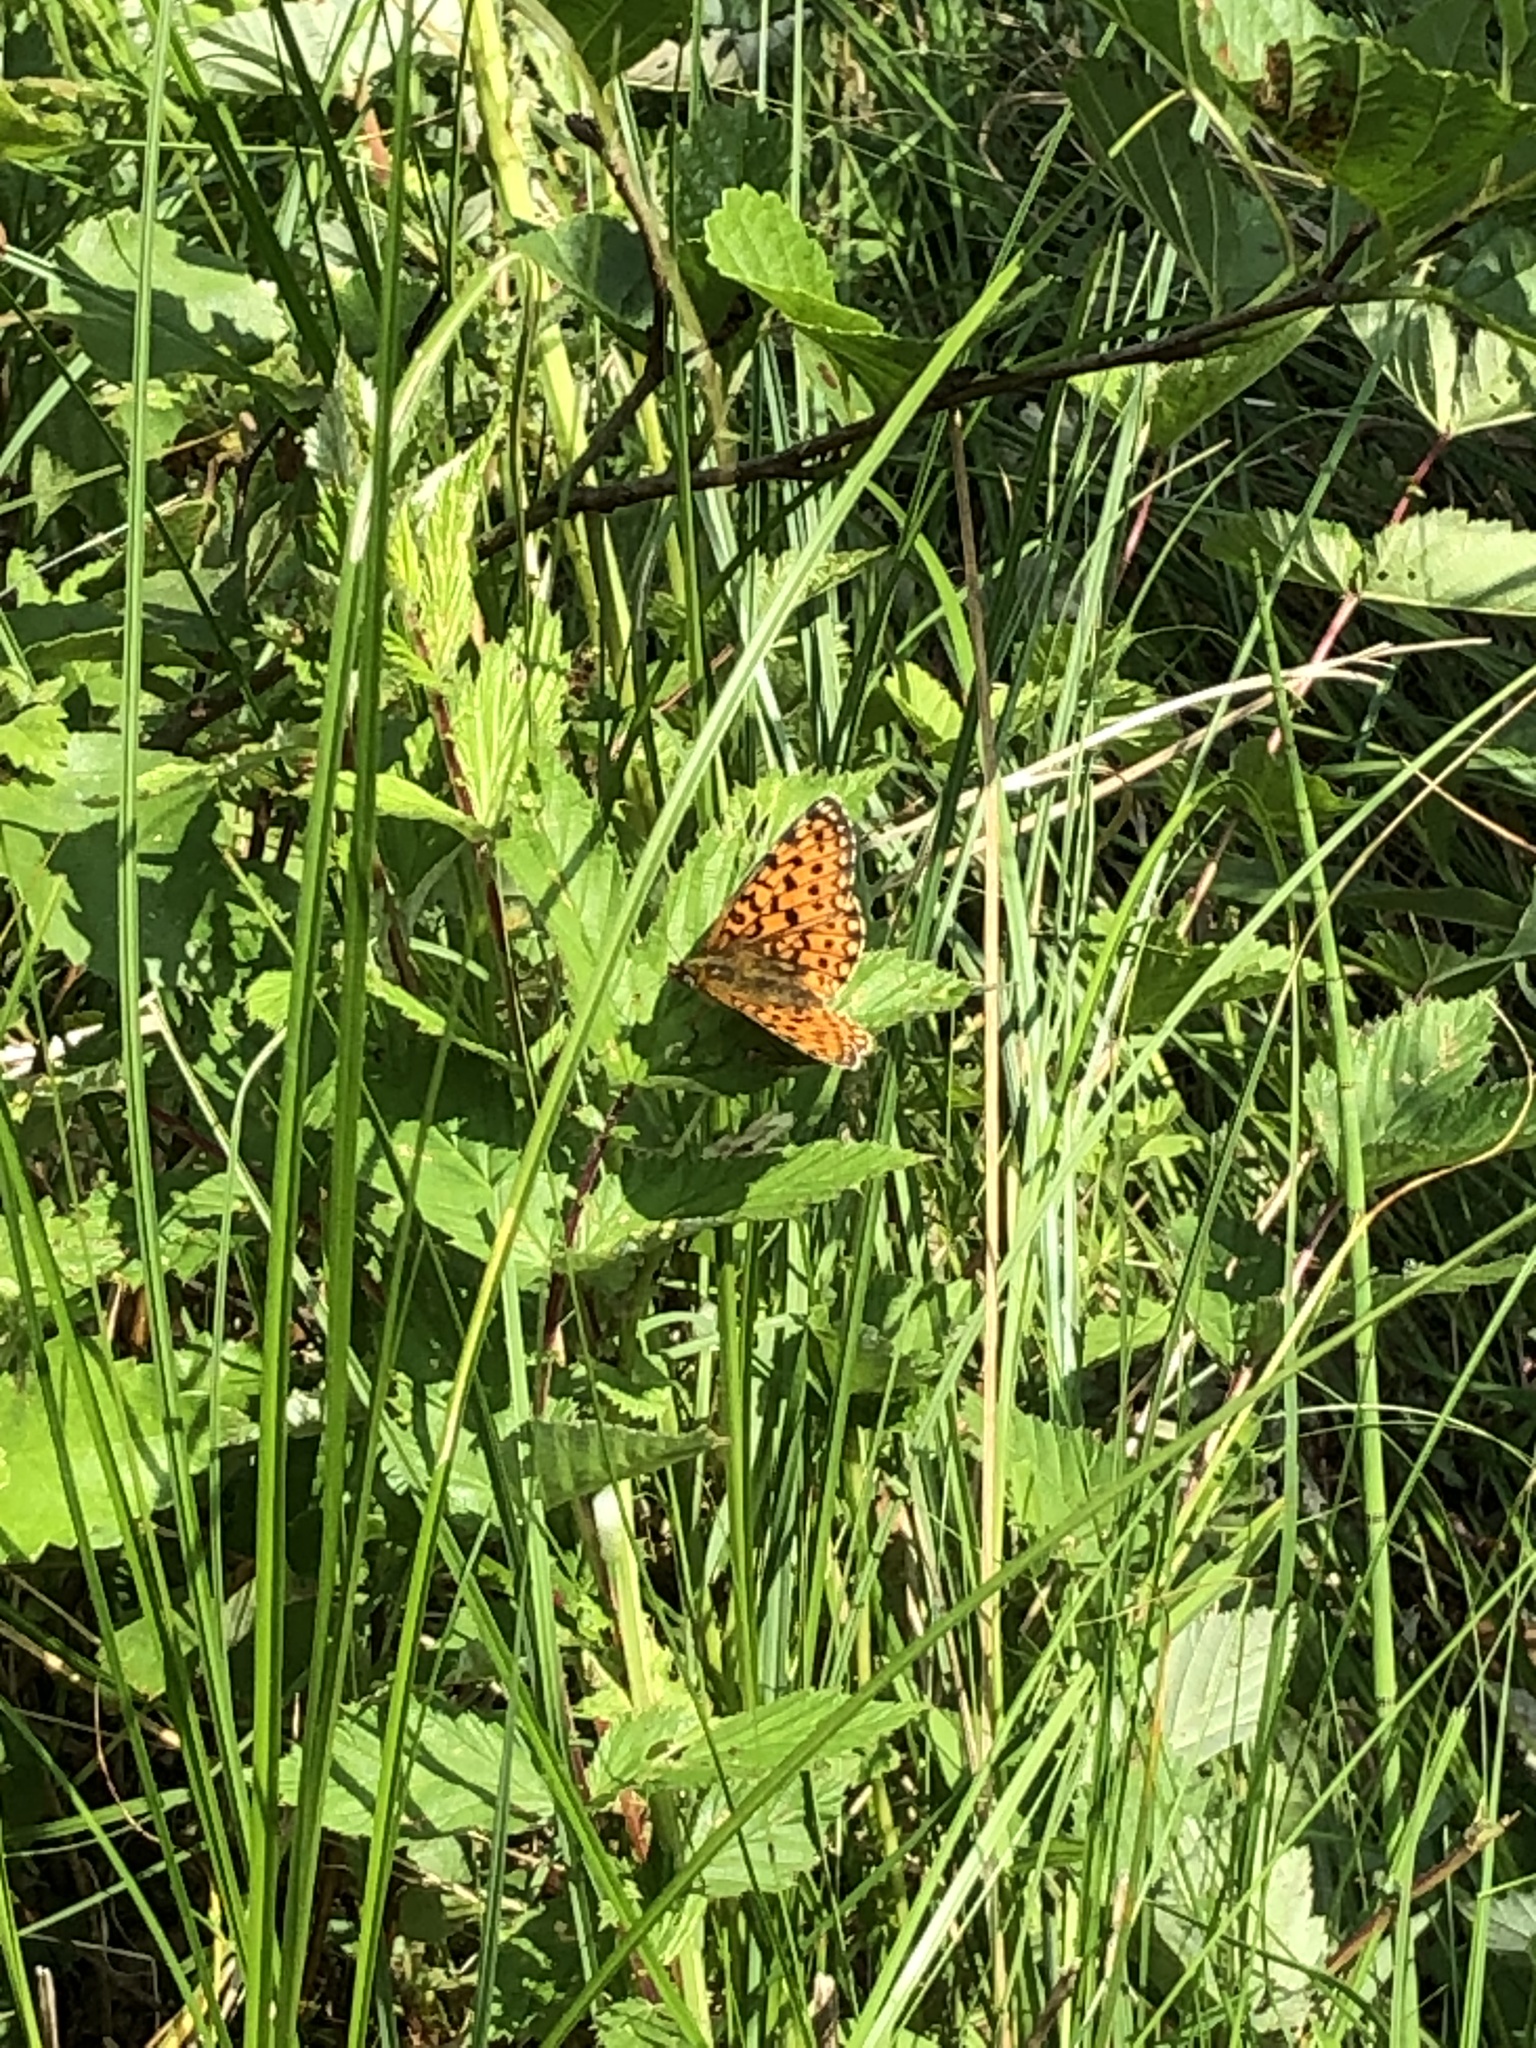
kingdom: Animalia
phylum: Arthropoda
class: Insecta
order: Lepidoptera
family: Nymphalidae
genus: Boloria
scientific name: Boloria selene
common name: Small pearl-bordered fritillary
